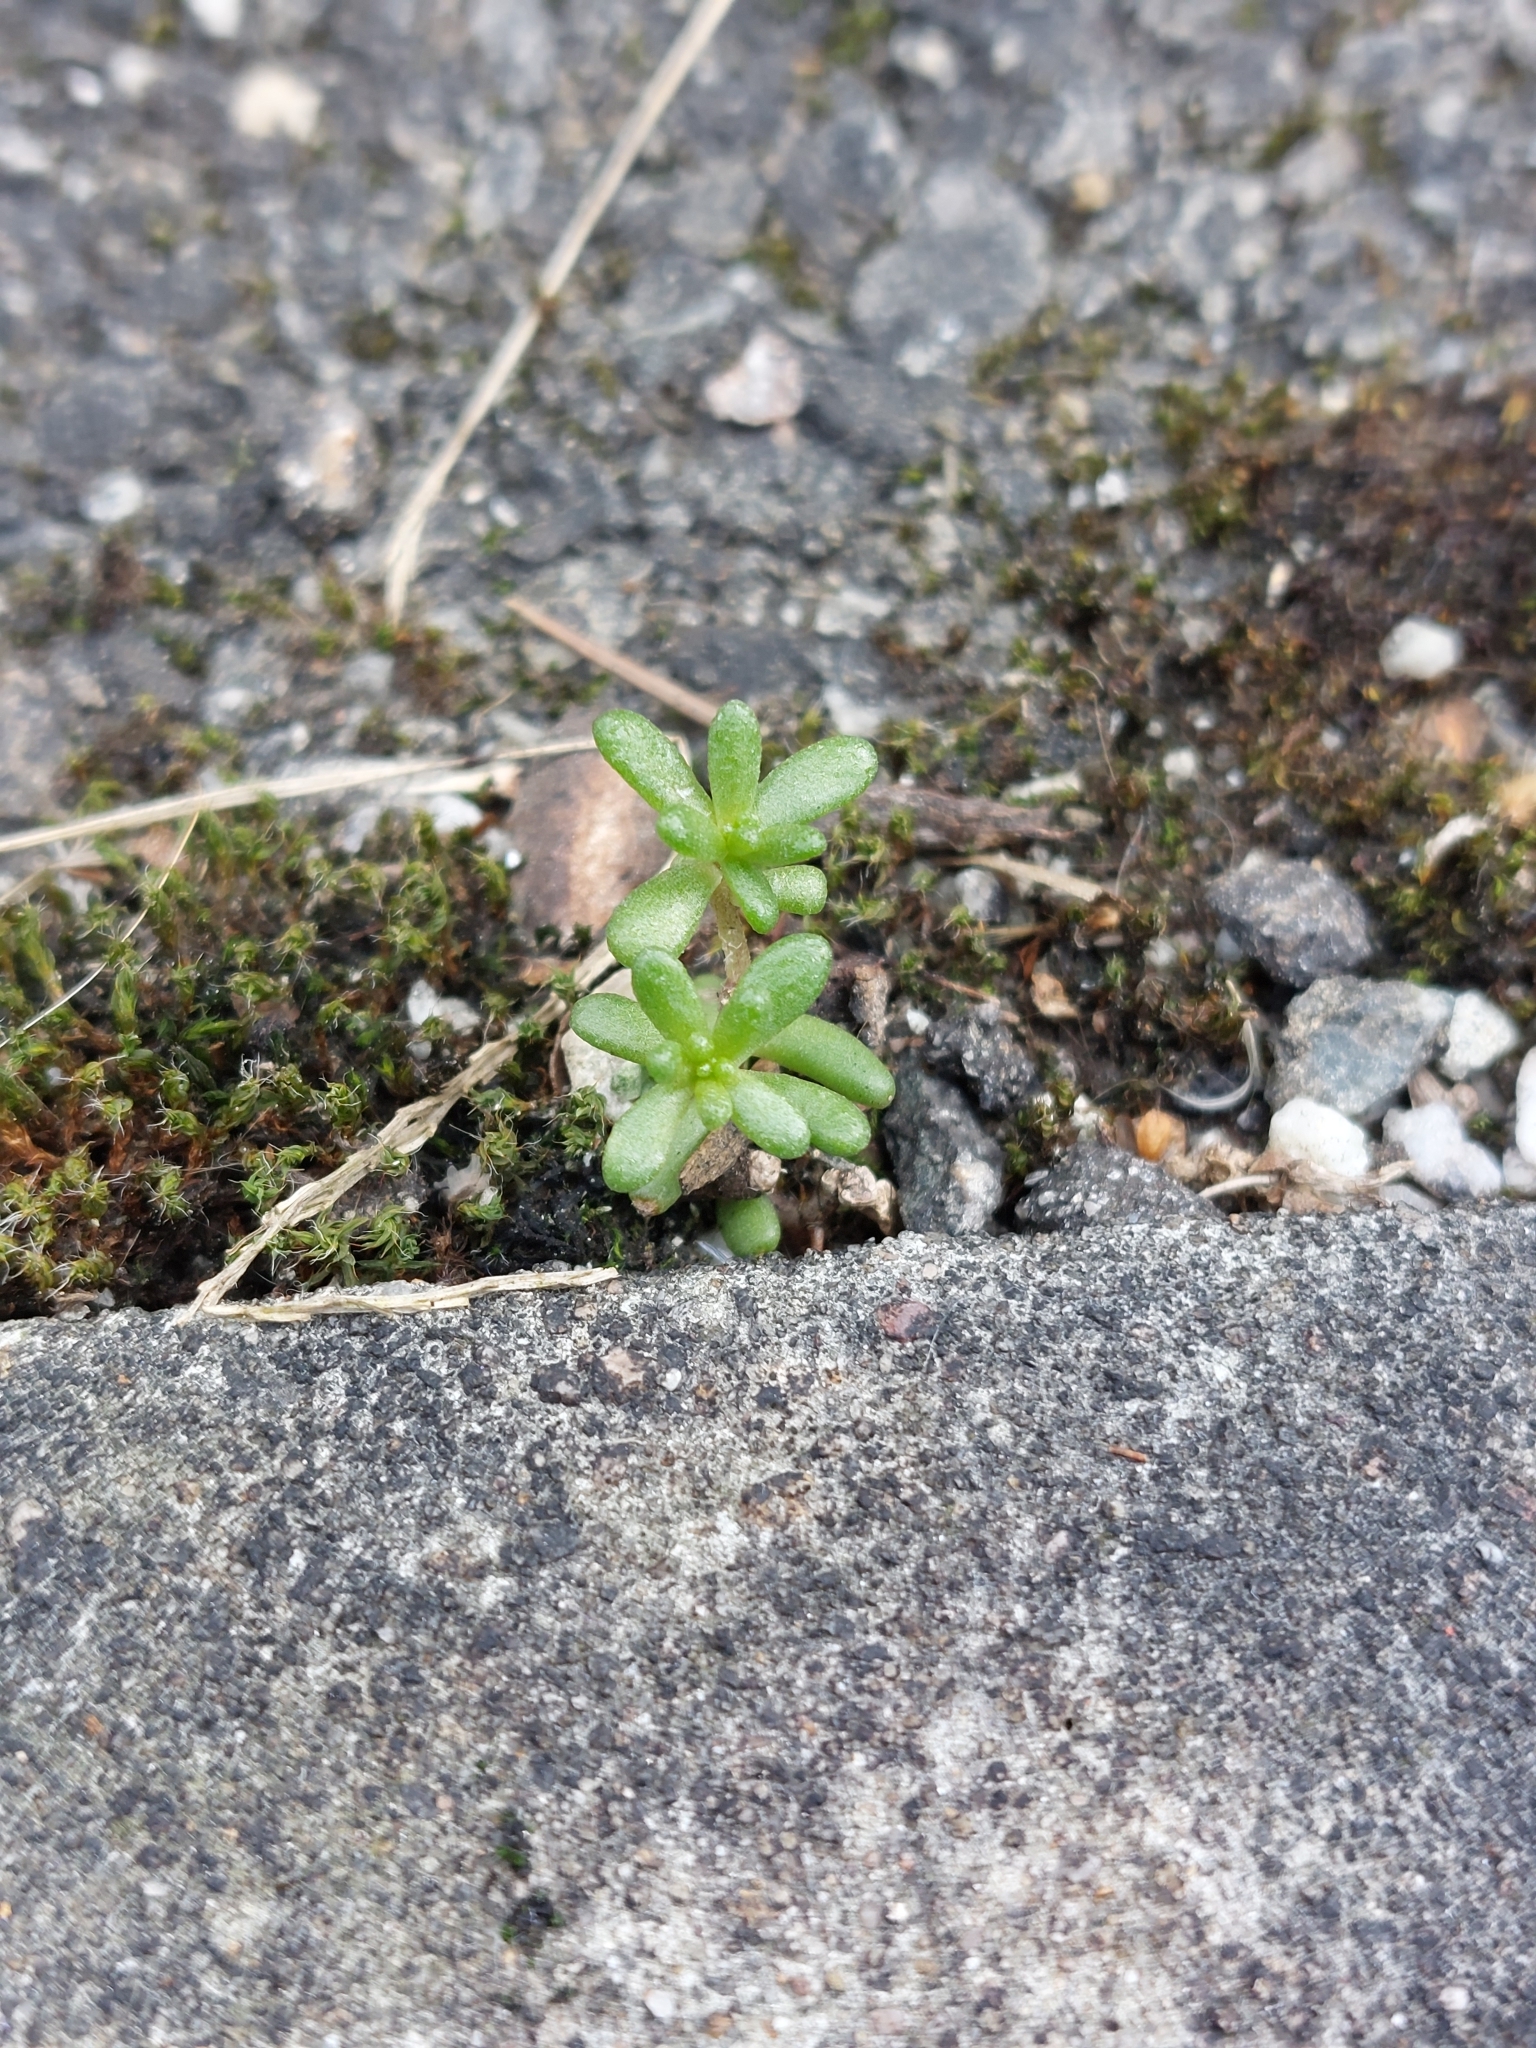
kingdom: Plantae
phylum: Tracheophyta
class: Magnoliopsida
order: Saxifragales
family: Crassulaceae
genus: Sedum
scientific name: Sedum album
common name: White stonecrop
